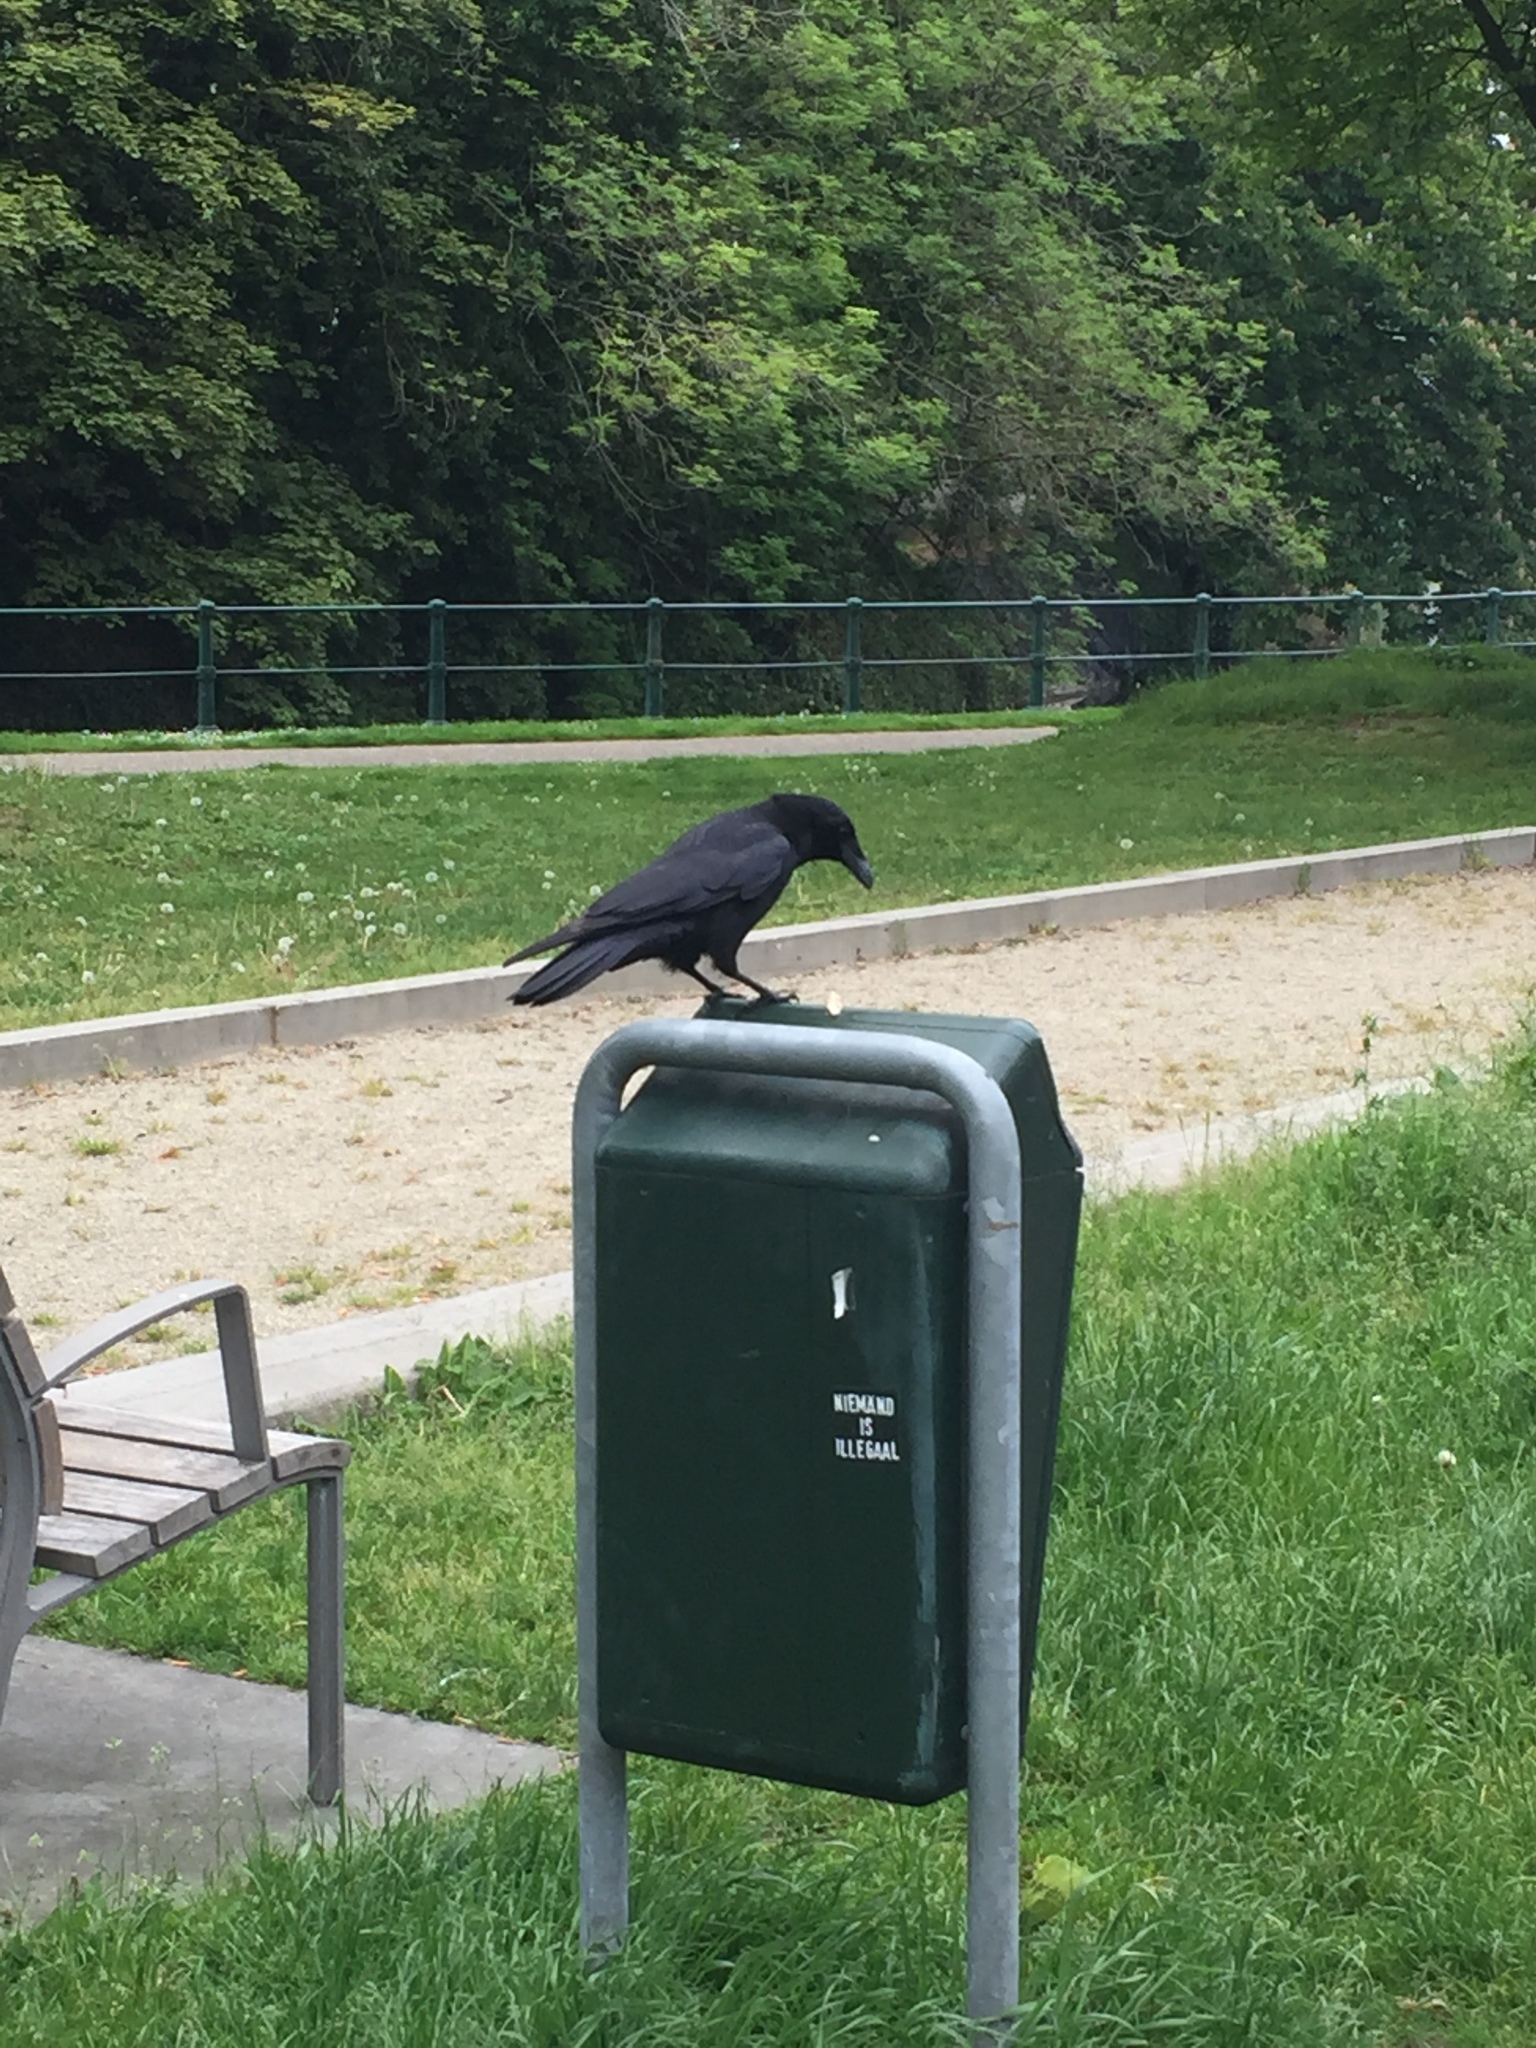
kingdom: Animalia
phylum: Chordata
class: Aves
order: Passeriformes
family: Corvidae
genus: Corvus
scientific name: Corvus corone
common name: Carrion crow
